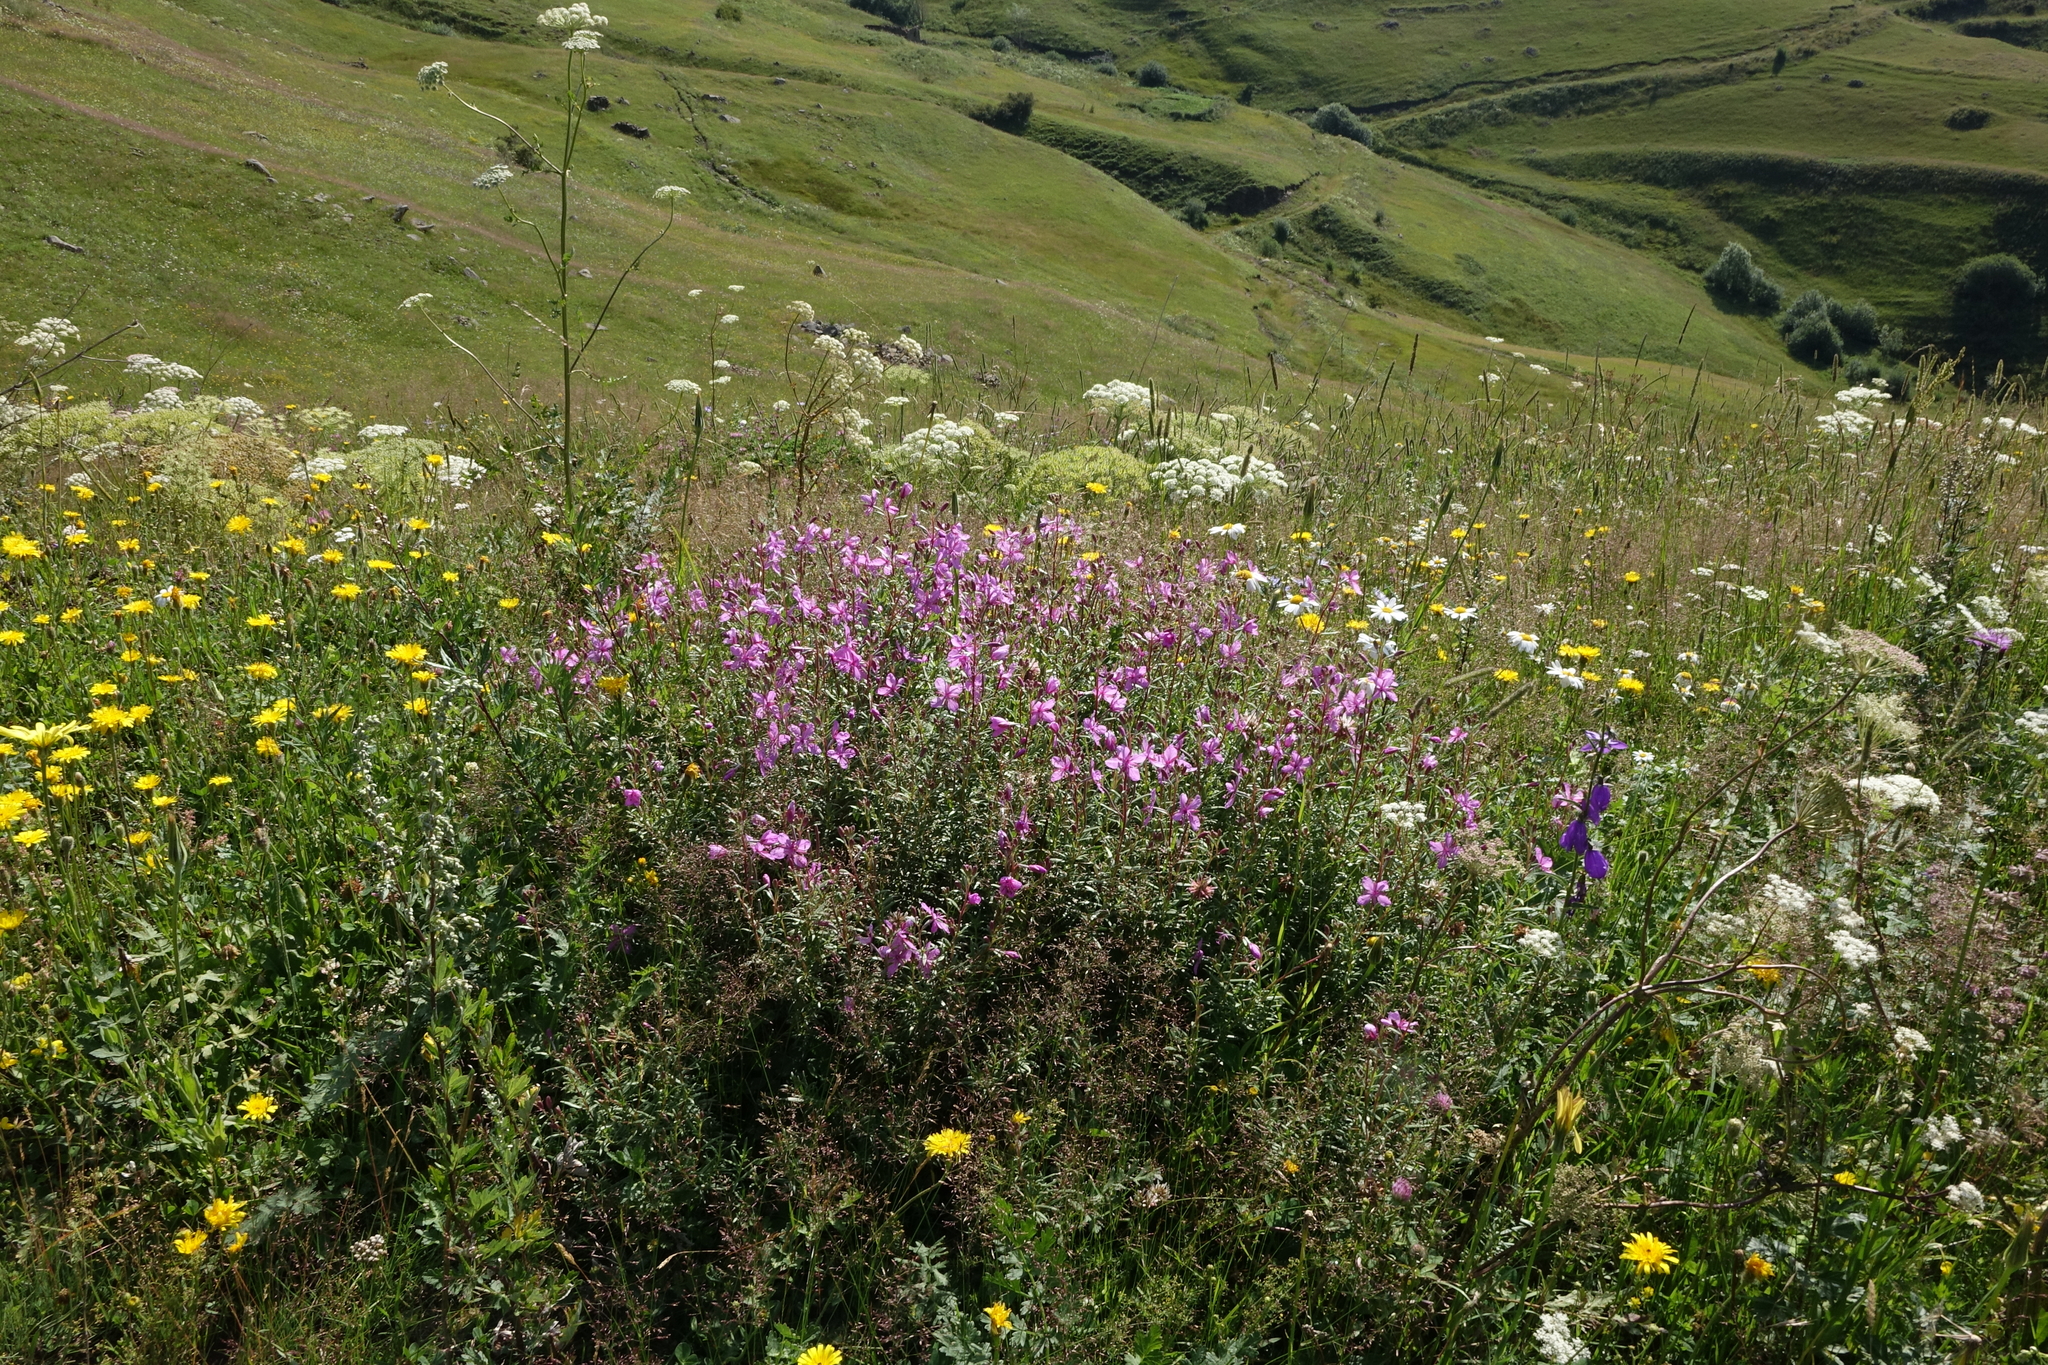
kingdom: Plantae
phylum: Tracheophyta
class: Magnoliopsida
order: Myrtales
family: Onagraceae
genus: Chamaenerion
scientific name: Chamaenerion colchicum
